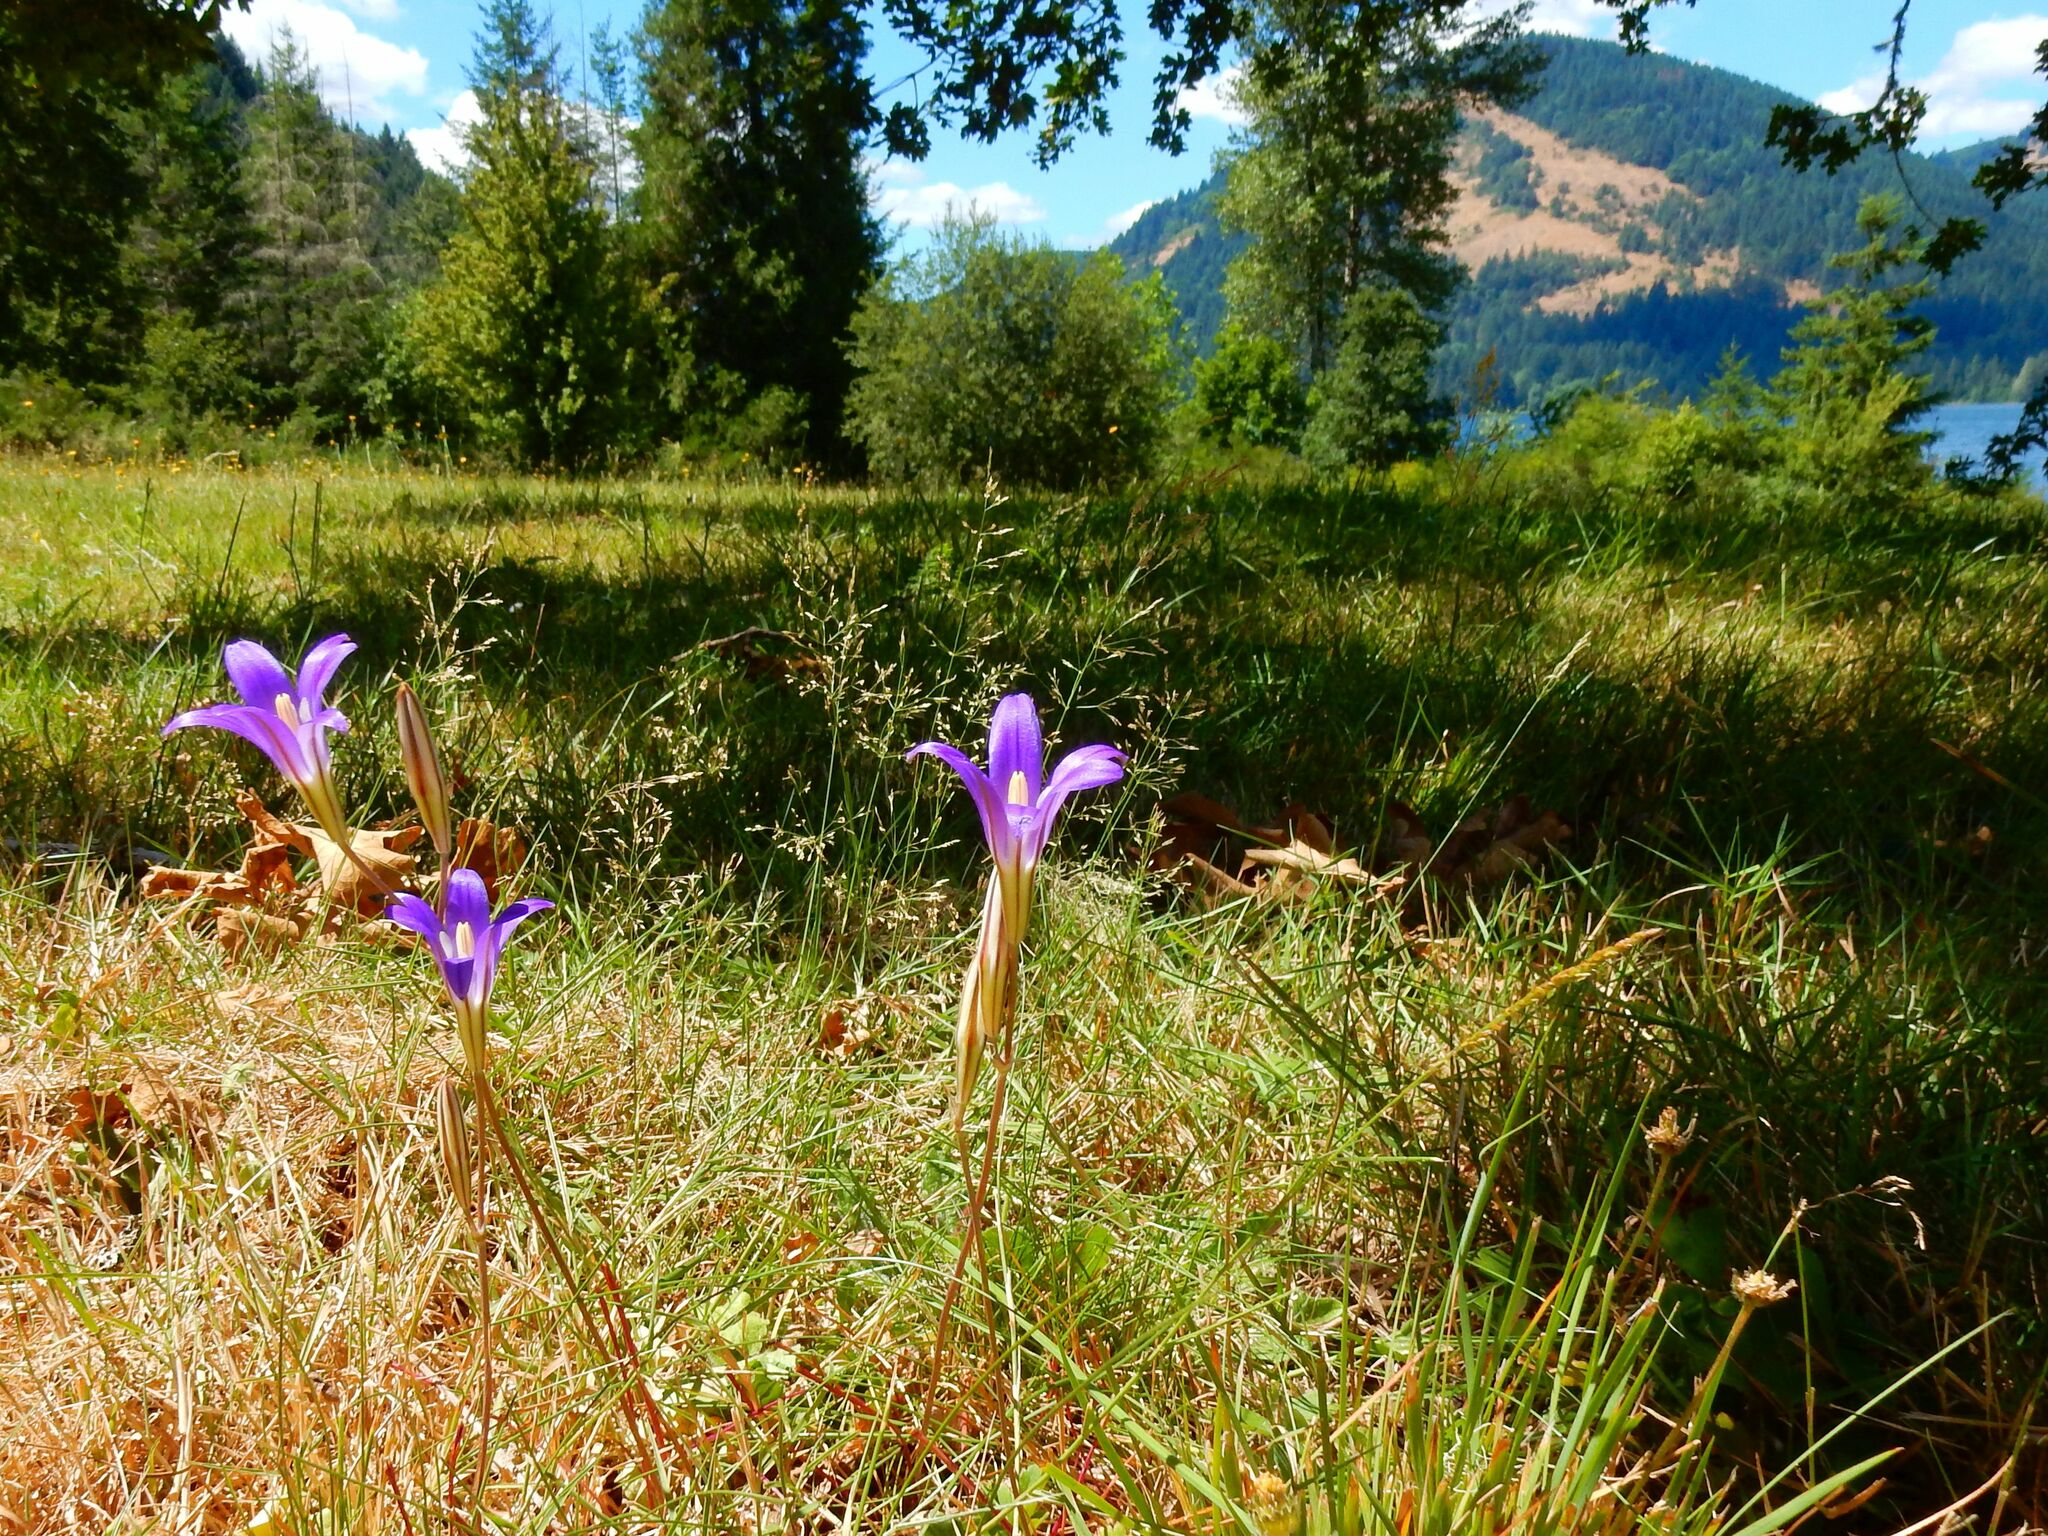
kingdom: Plantae
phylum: Tracheophyta
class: Liliopsida
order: Asparagales
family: Asparagaceae
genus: Brodiaea
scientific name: Brodiaea elegans
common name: Elegant cluster-lily
